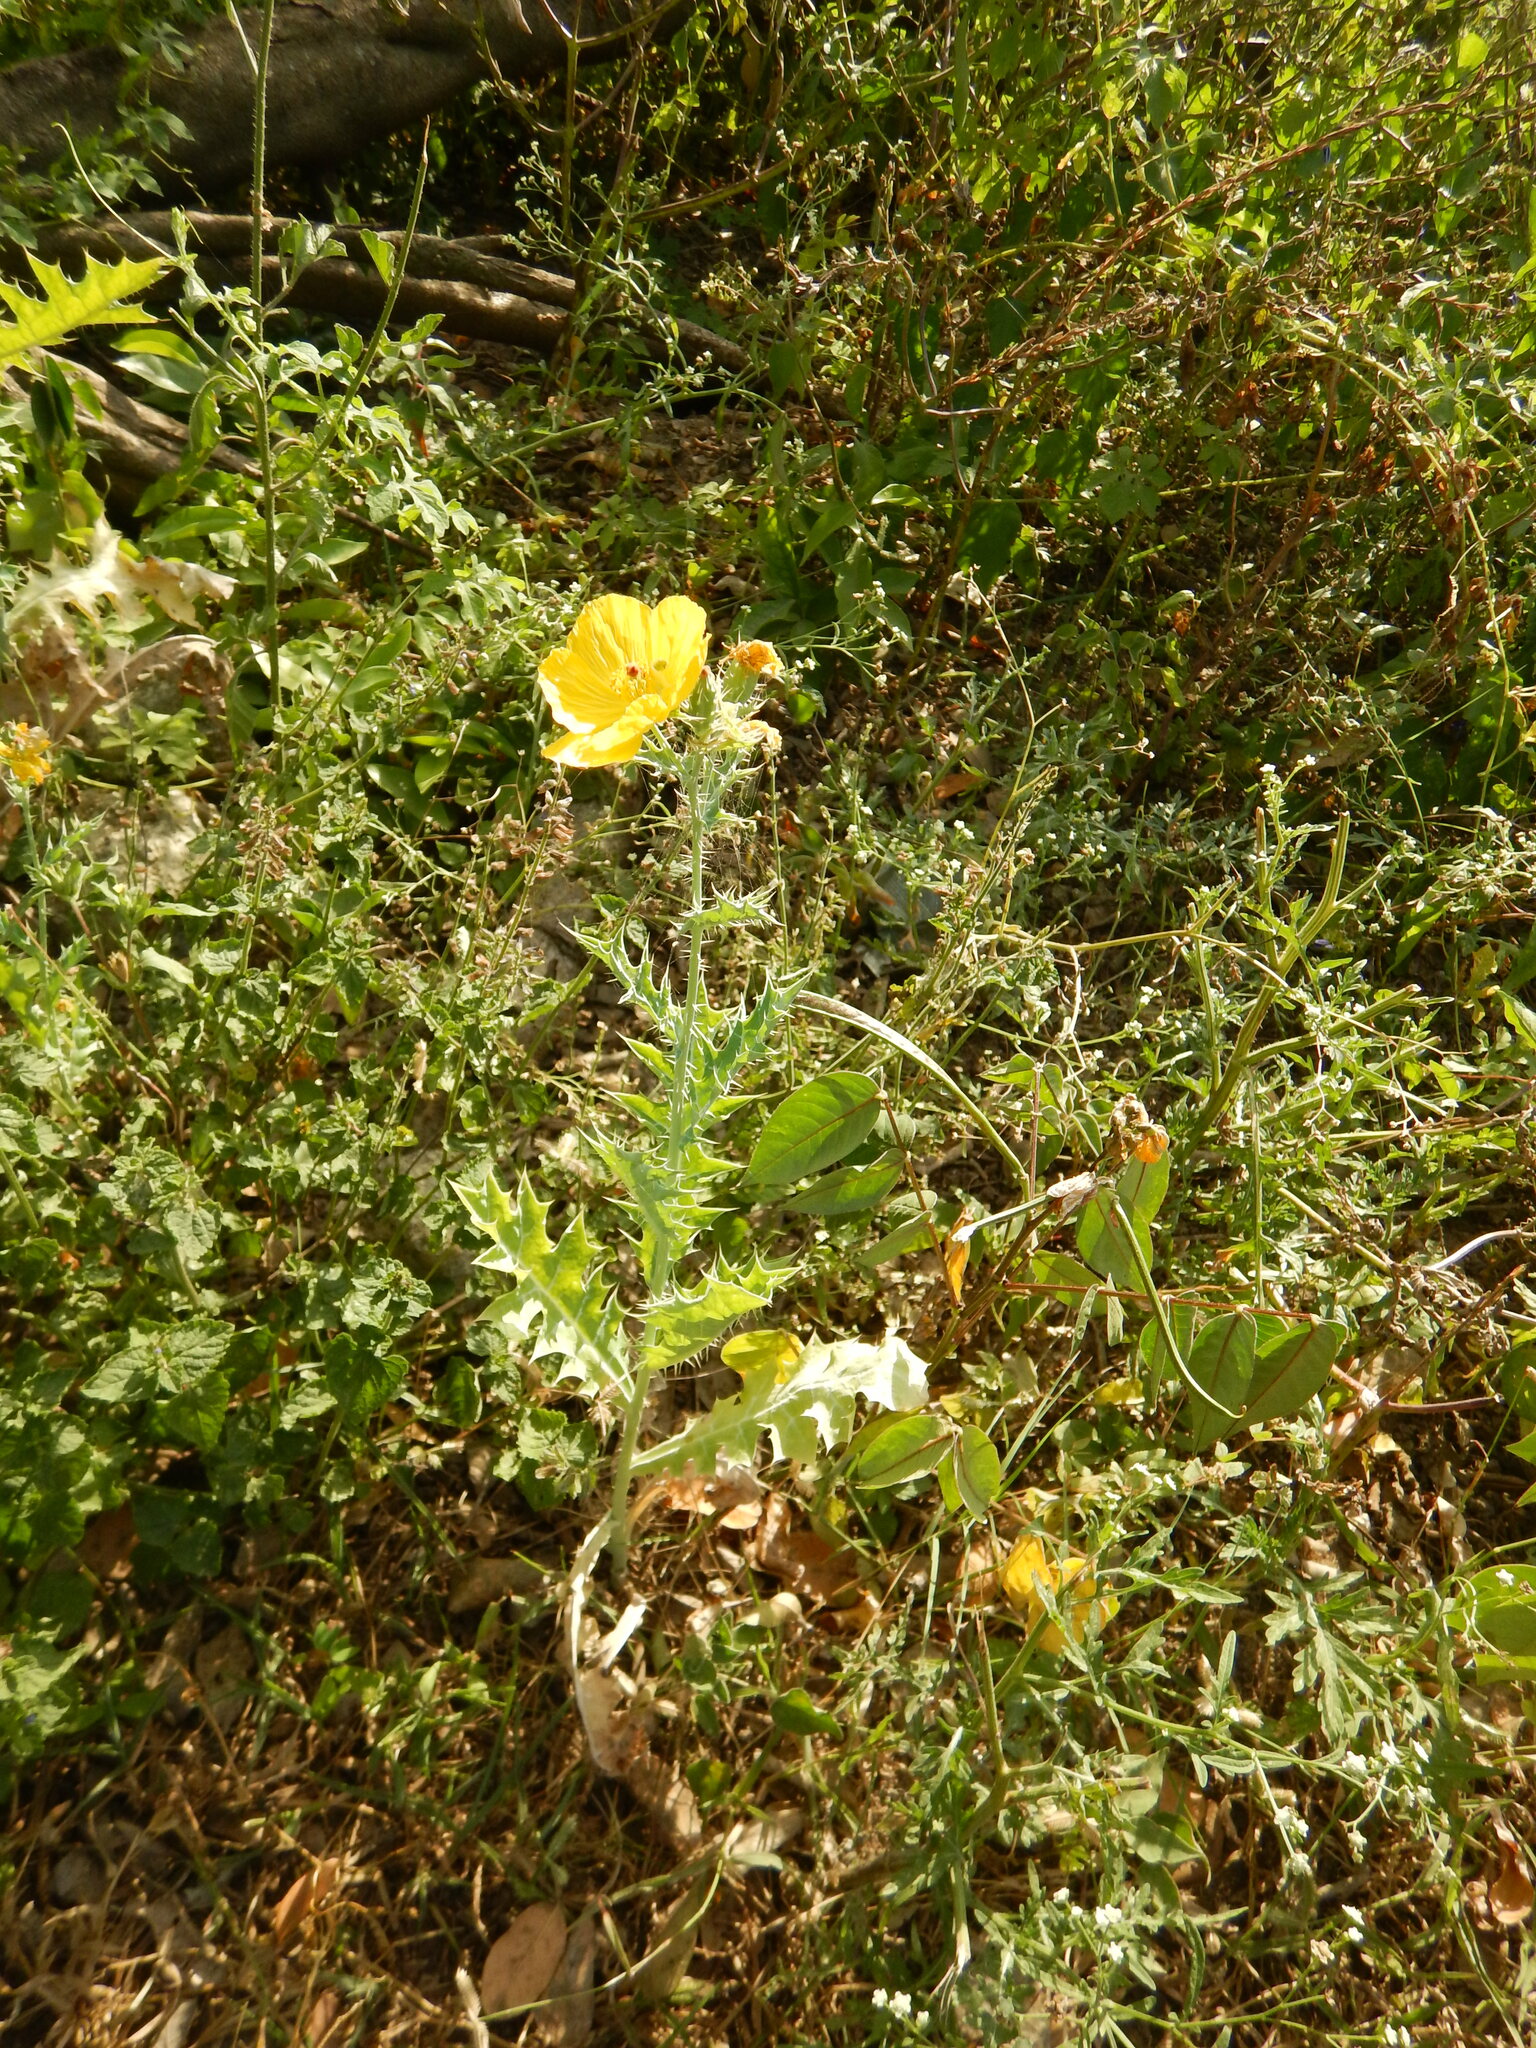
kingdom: Plantae
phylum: Tracheophyta
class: Magnoliopsida
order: Ranunculales
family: Papaveraceae
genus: Argemone
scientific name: Argemone mexicana
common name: Mexican poppy
